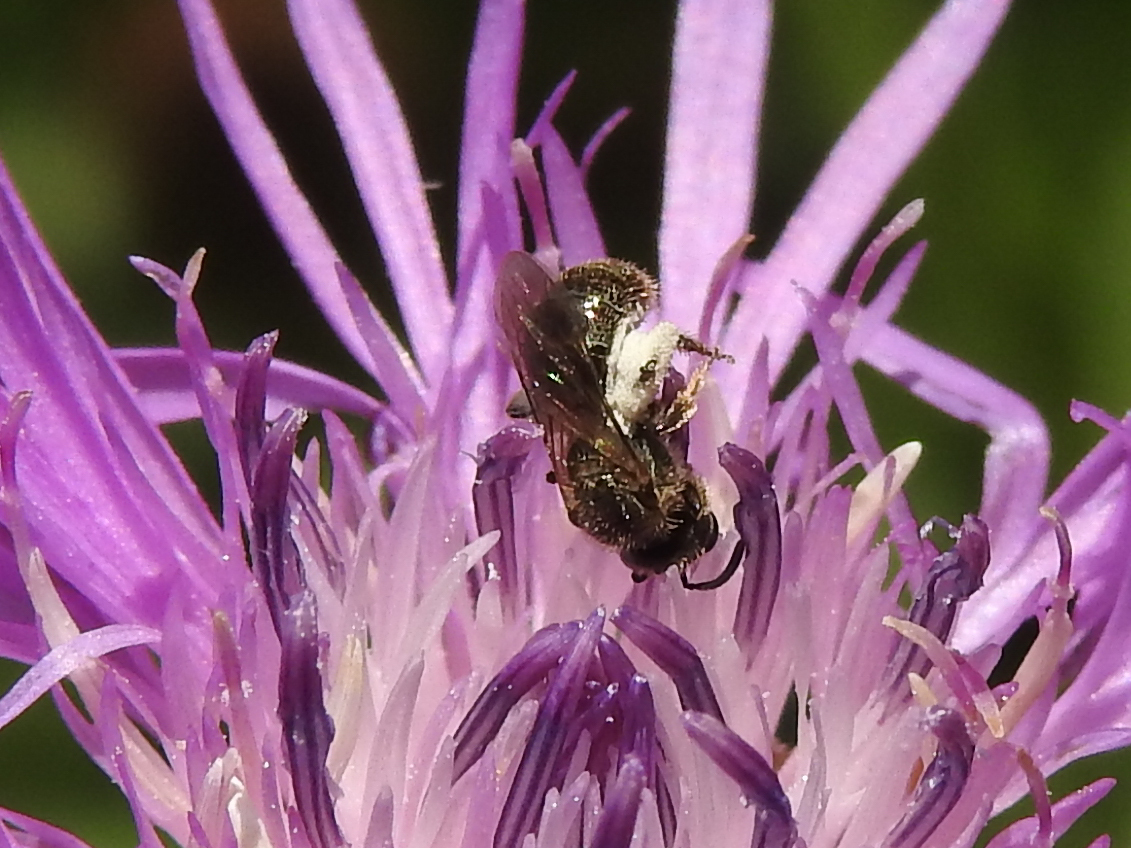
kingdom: Animalia
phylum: Arthropoda
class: Insecta
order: Hymenoptera
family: Halictidae
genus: Dialictus
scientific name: Dialictus
